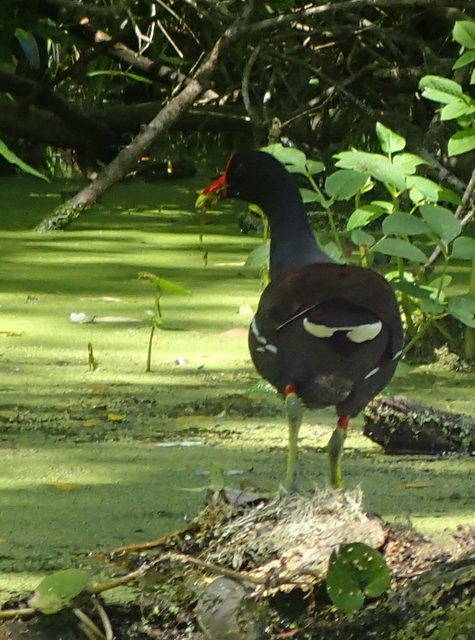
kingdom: Animalia
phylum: Chordata
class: Aves
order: Gruiformes
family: Rallidae
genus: Gallinula
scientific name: Gallinula chloropus
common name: Common moorhen
